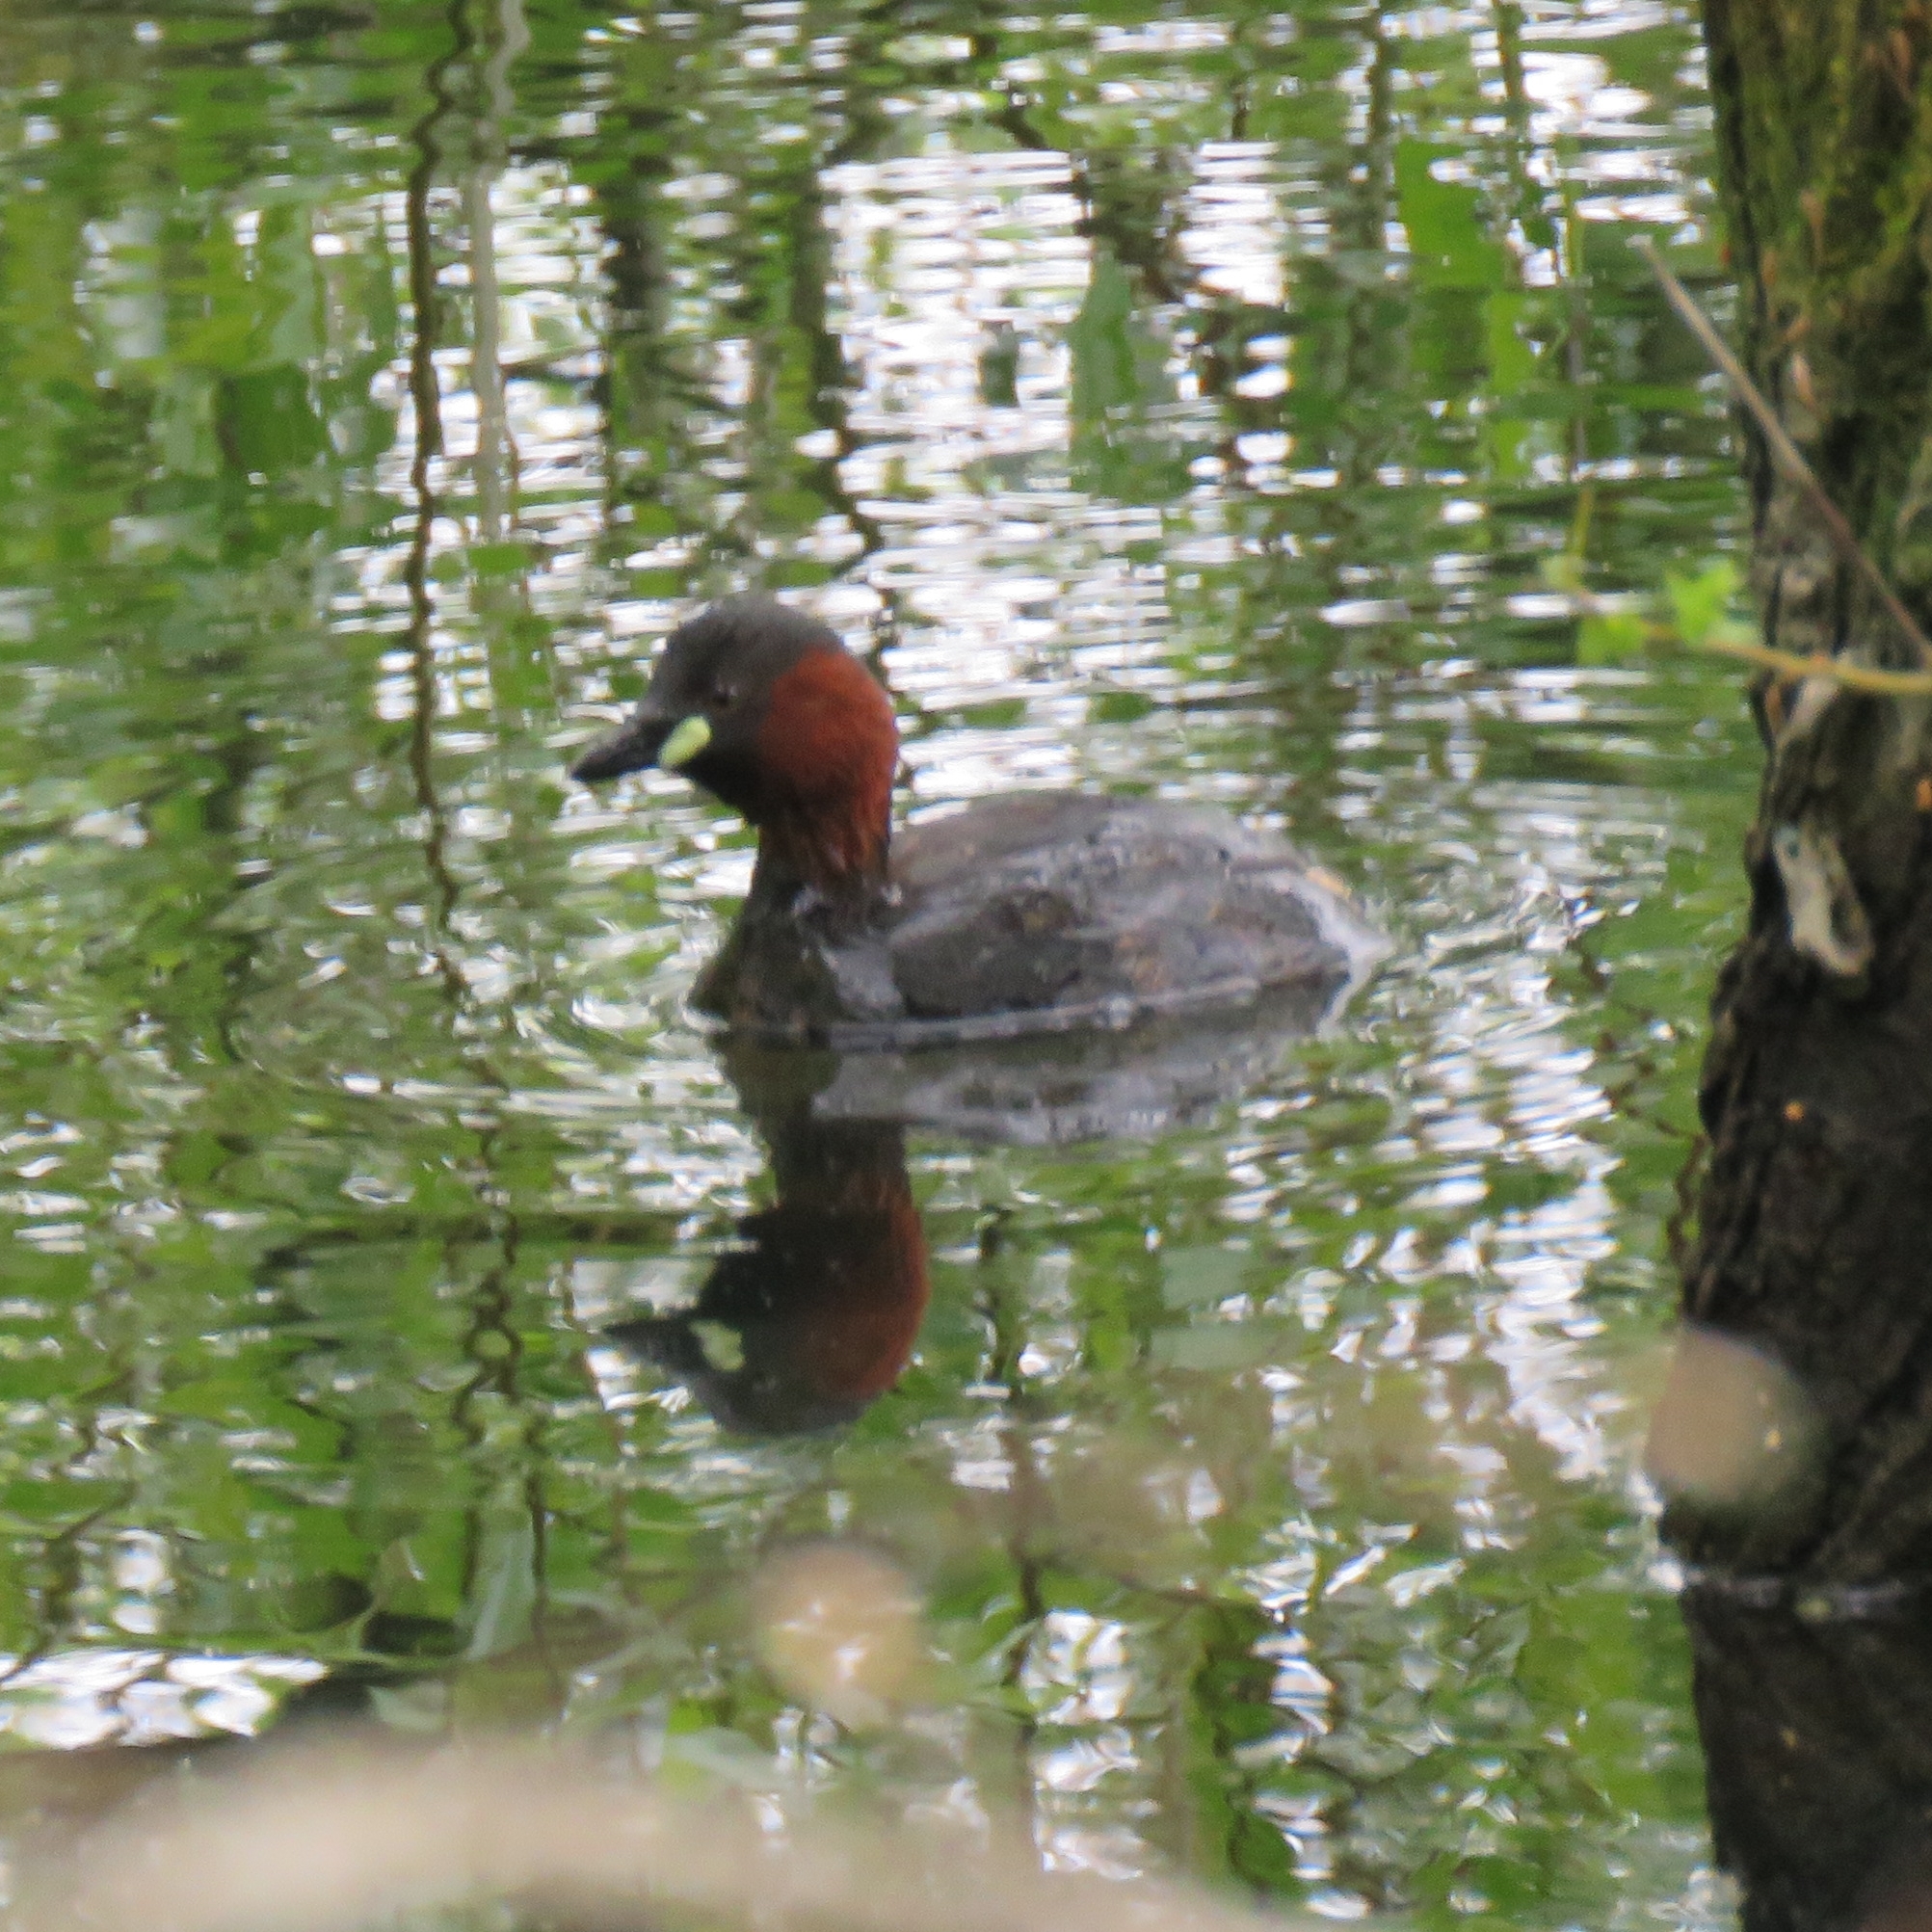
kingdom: Animalia
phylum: Chordata
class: Aves
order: Podicipediformes
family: Podicipedidae
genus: Tachybaptus
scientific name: Tachybaptus ruficollis
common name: Little grebe
